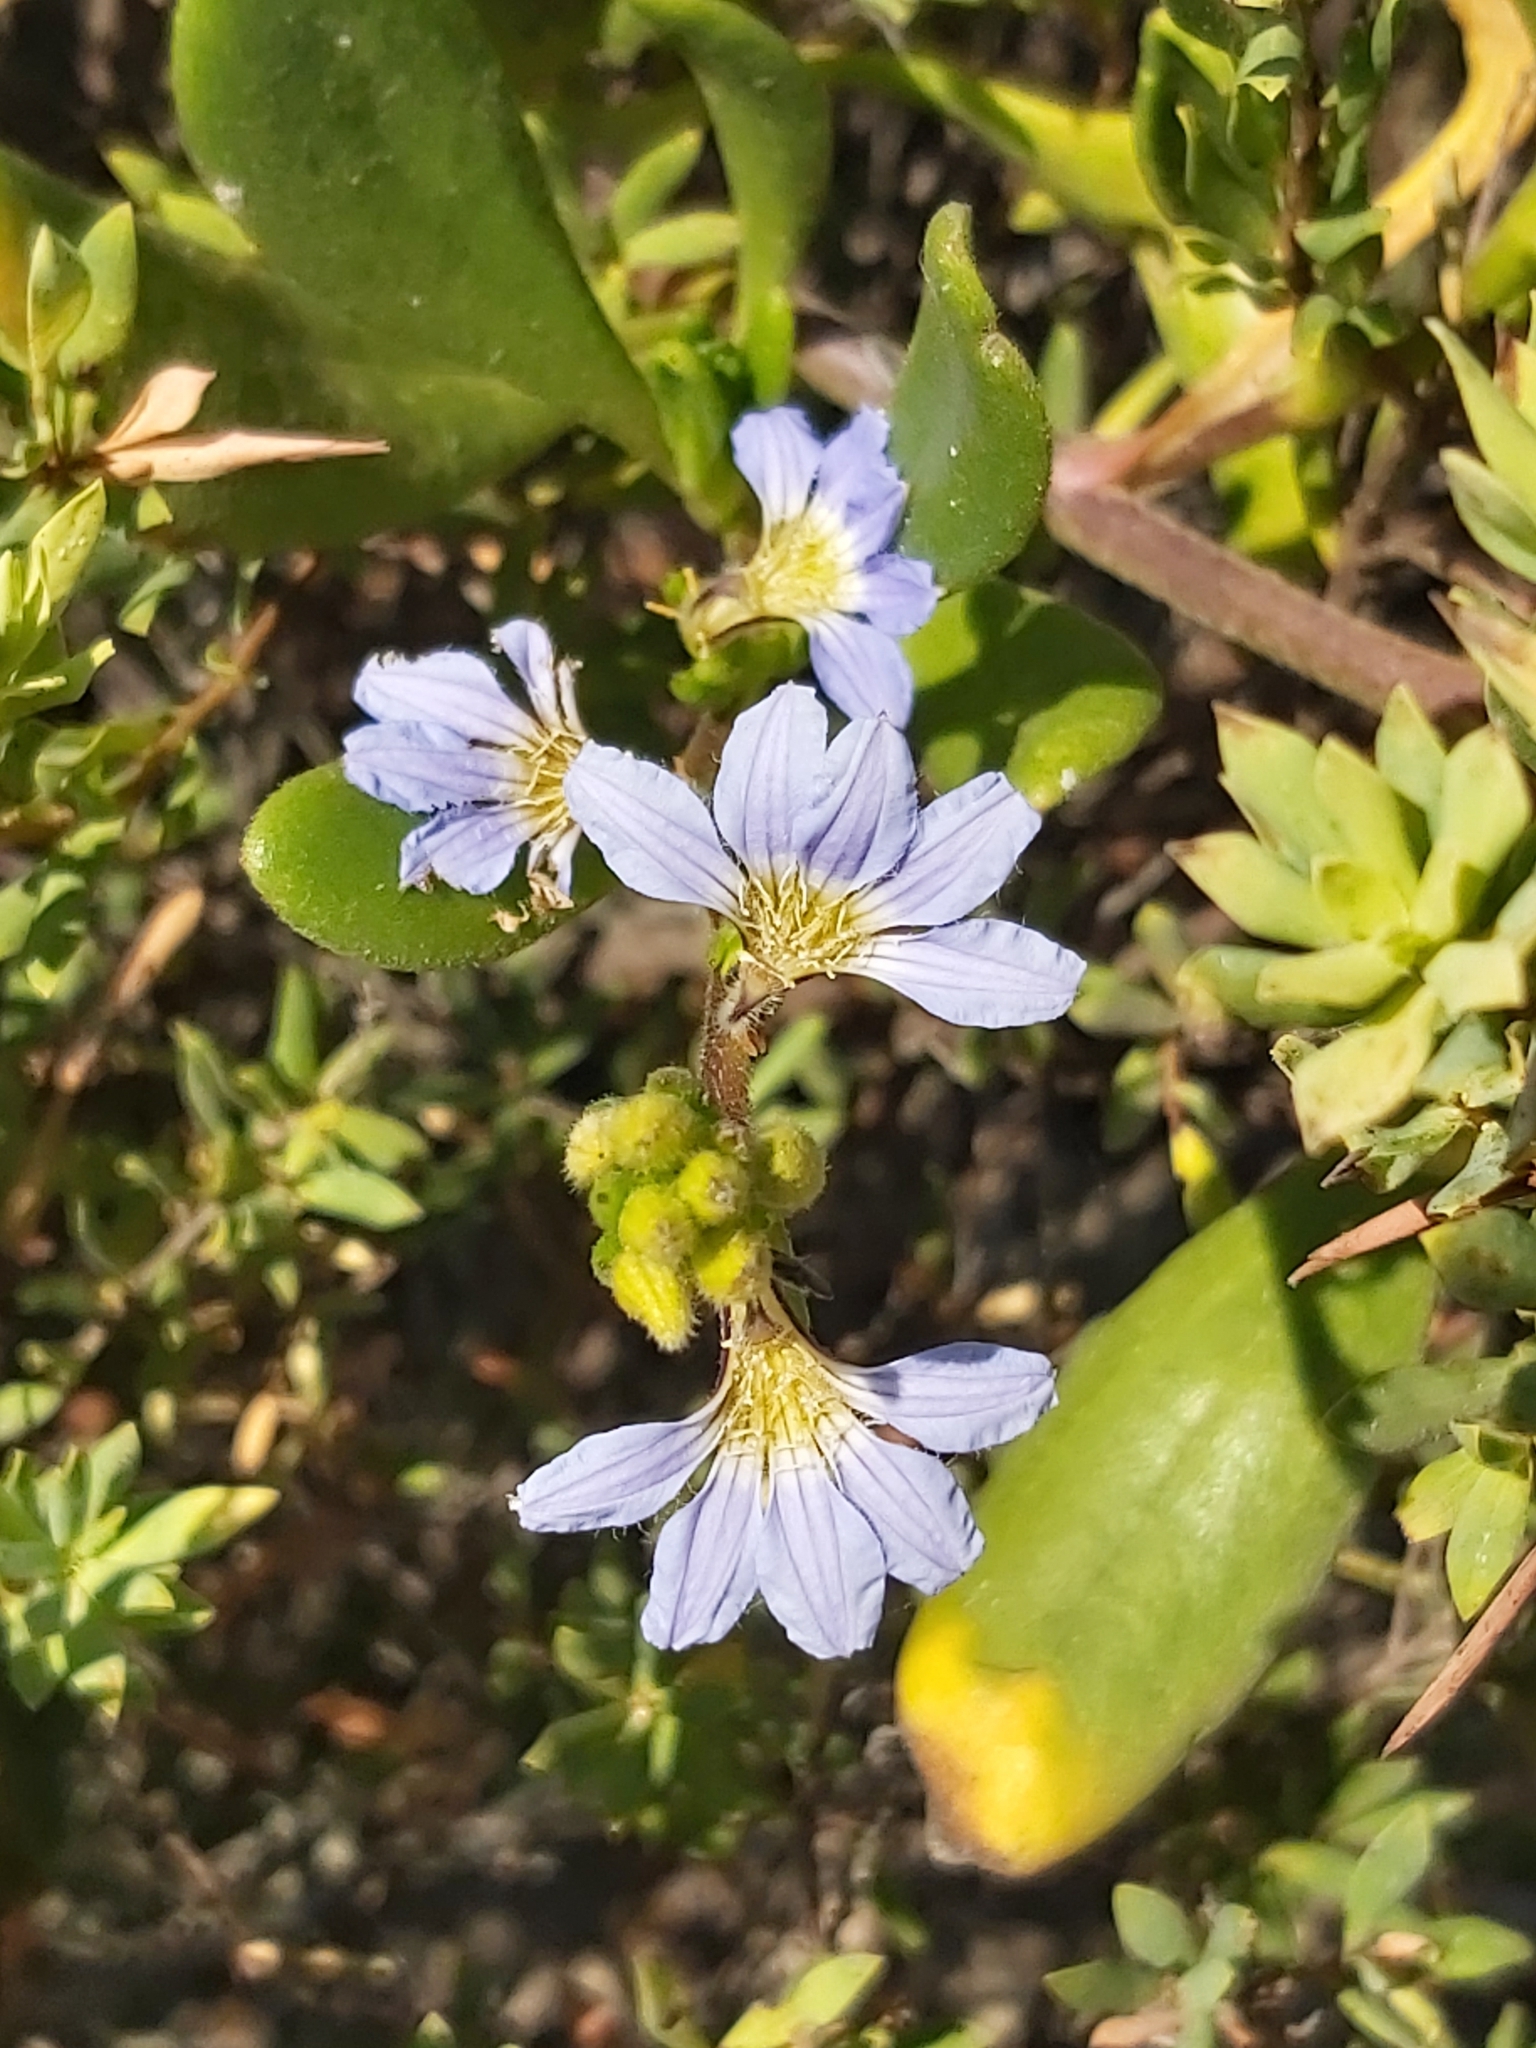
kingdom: Plantae
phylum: Tracheophyta
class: Magnoliopsida
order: Asterales
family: Goodeniaceae
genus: Scaevola
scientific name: Scaevola calendulacea
